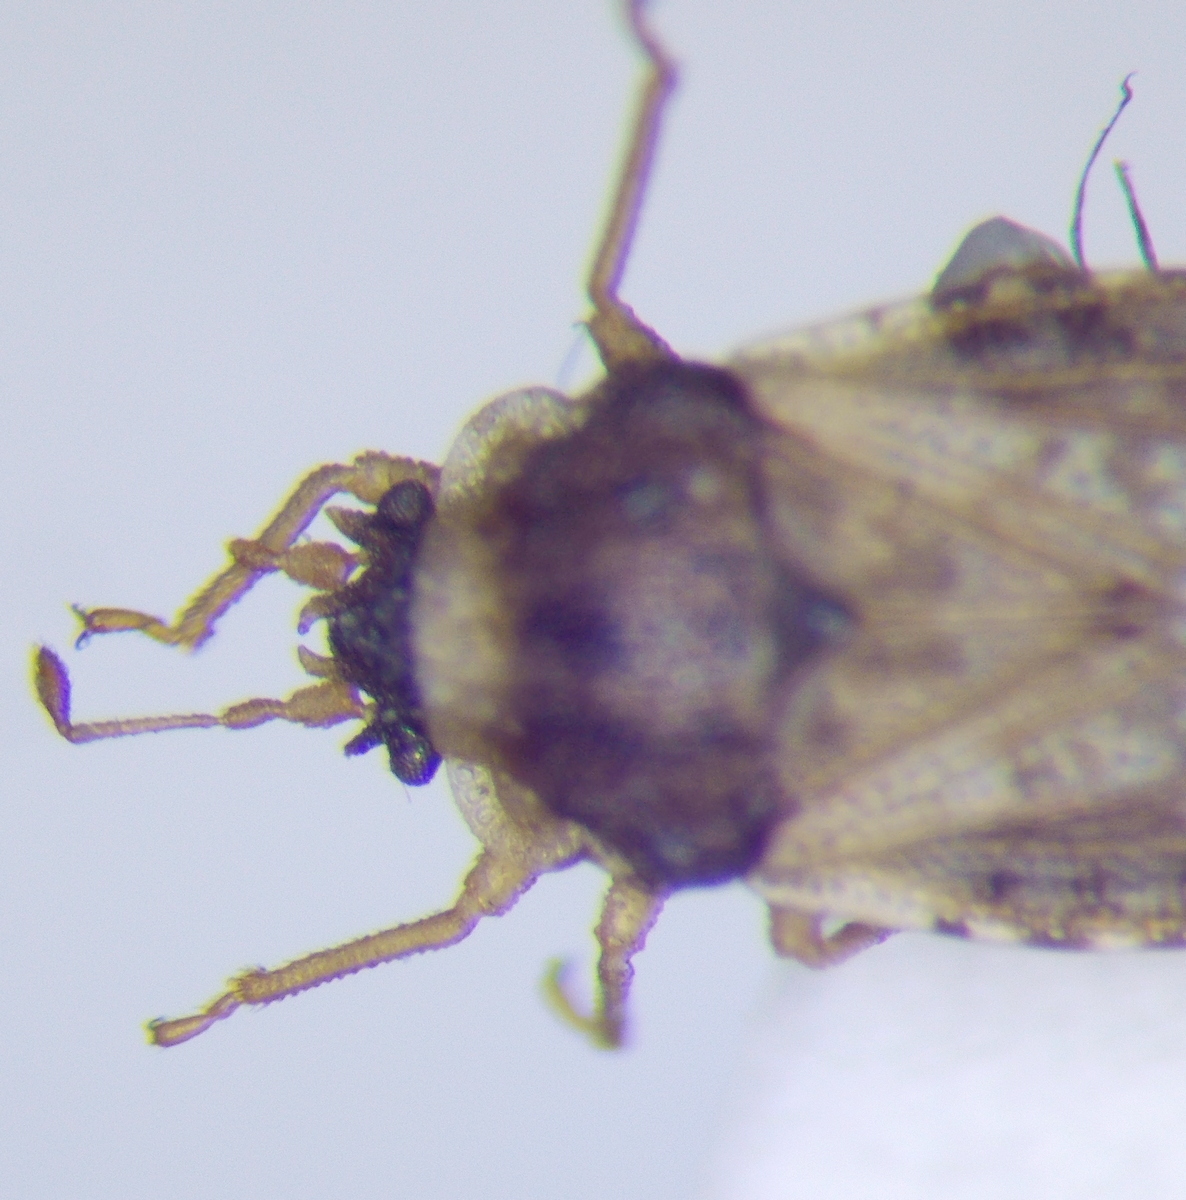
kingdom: Animalia
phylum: Arthropoda
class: Insecta
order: Hemiptera
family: Piesmatidae
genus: Piesma
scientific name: Piesma maculata
